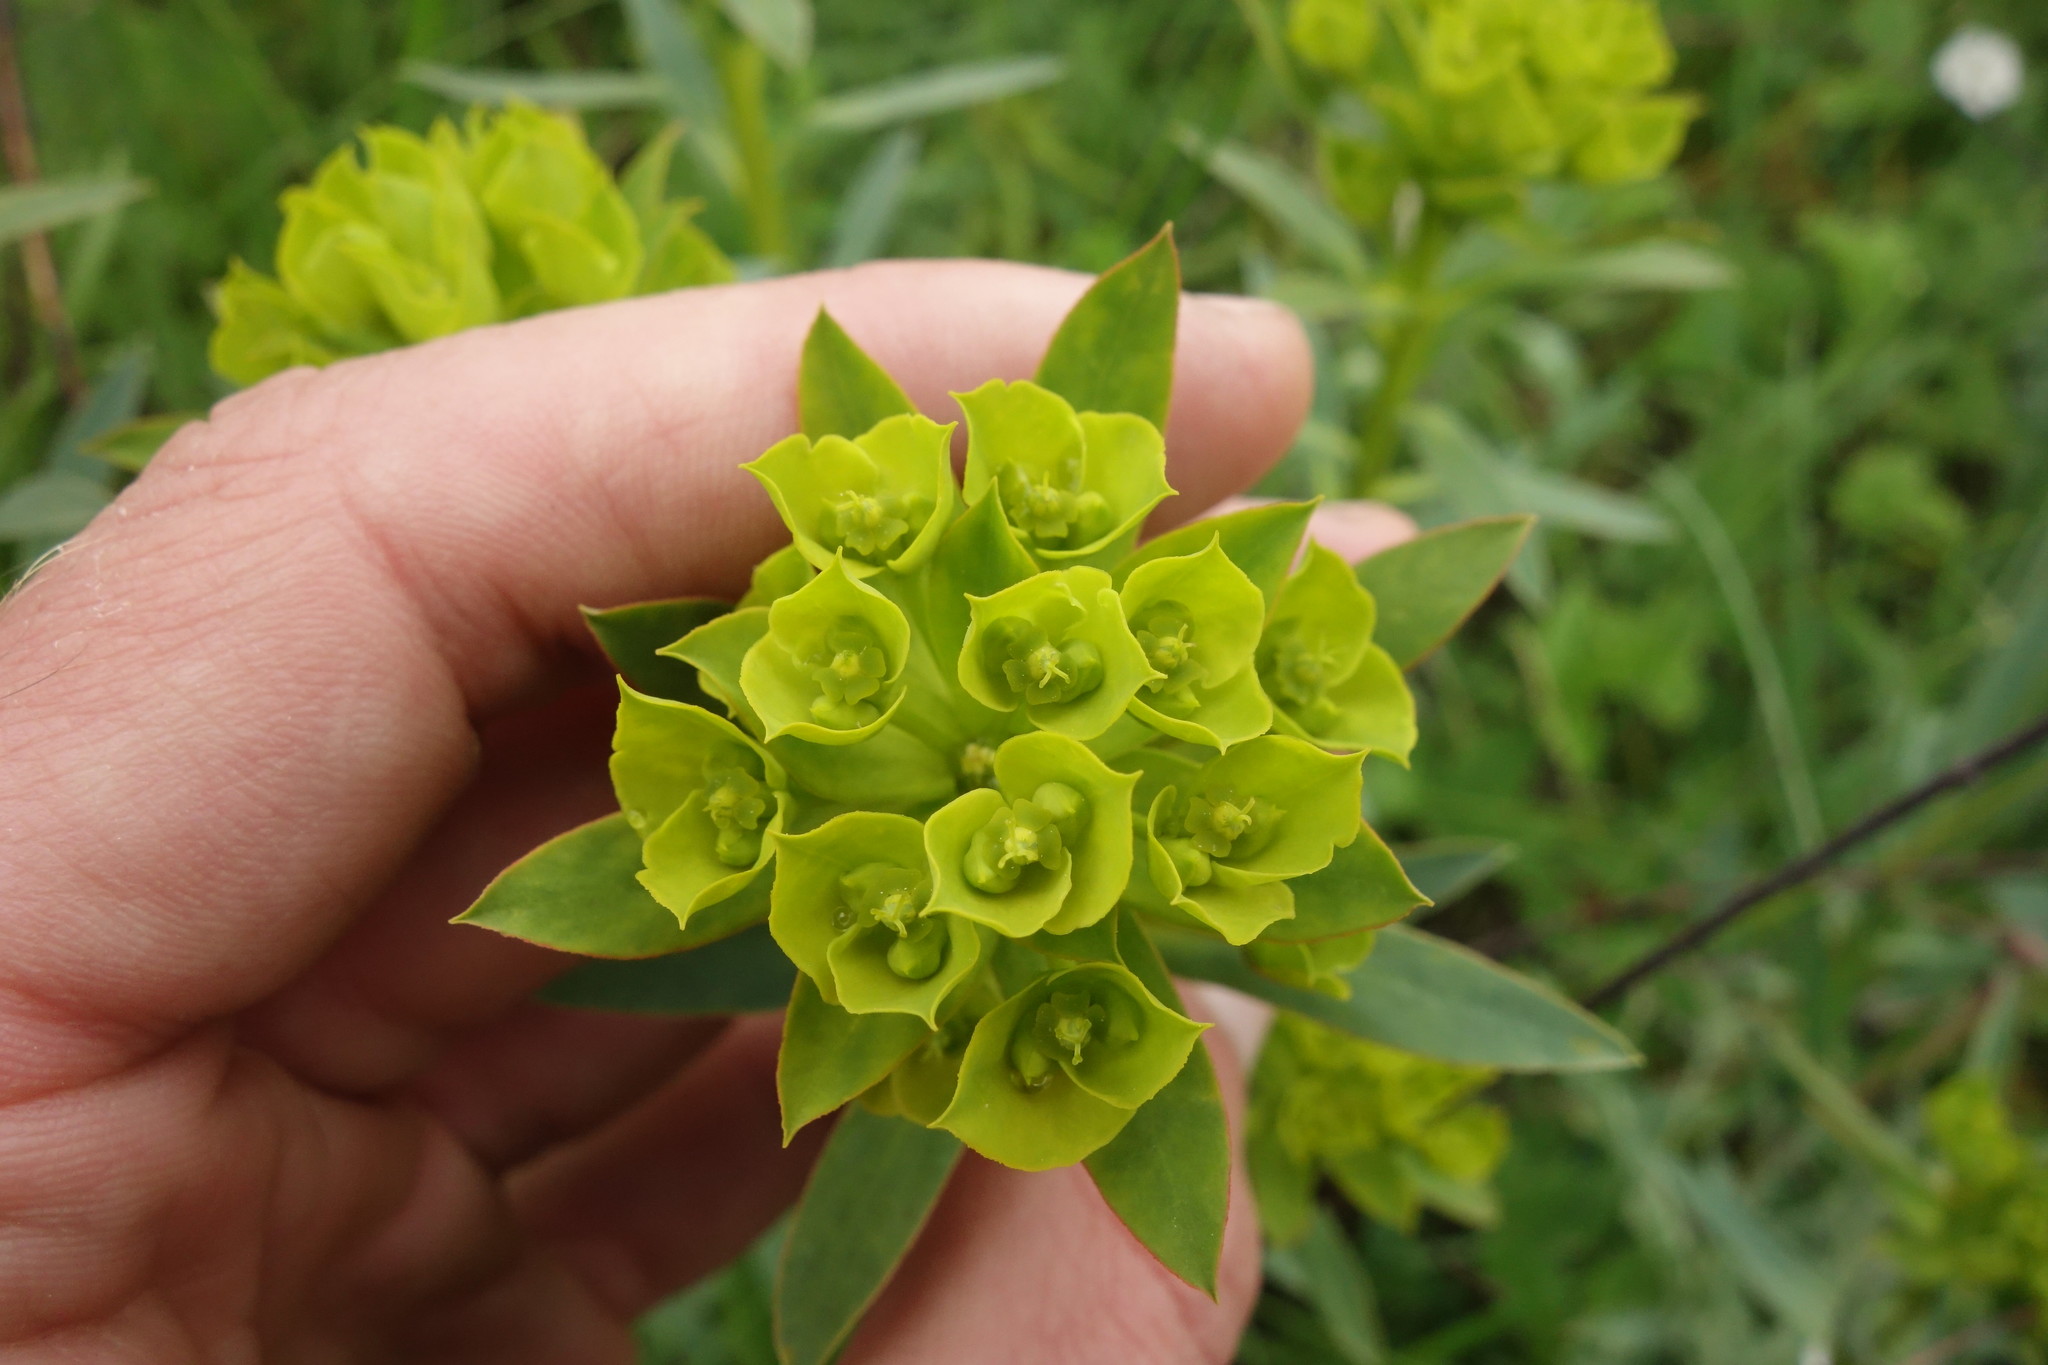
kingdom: Plantae
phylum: Tracheophyta
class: Magnoliopsida
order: Malpighiales
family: Euphorbiaceae
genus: Euphorbia
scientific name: Euphorbia stepposa
